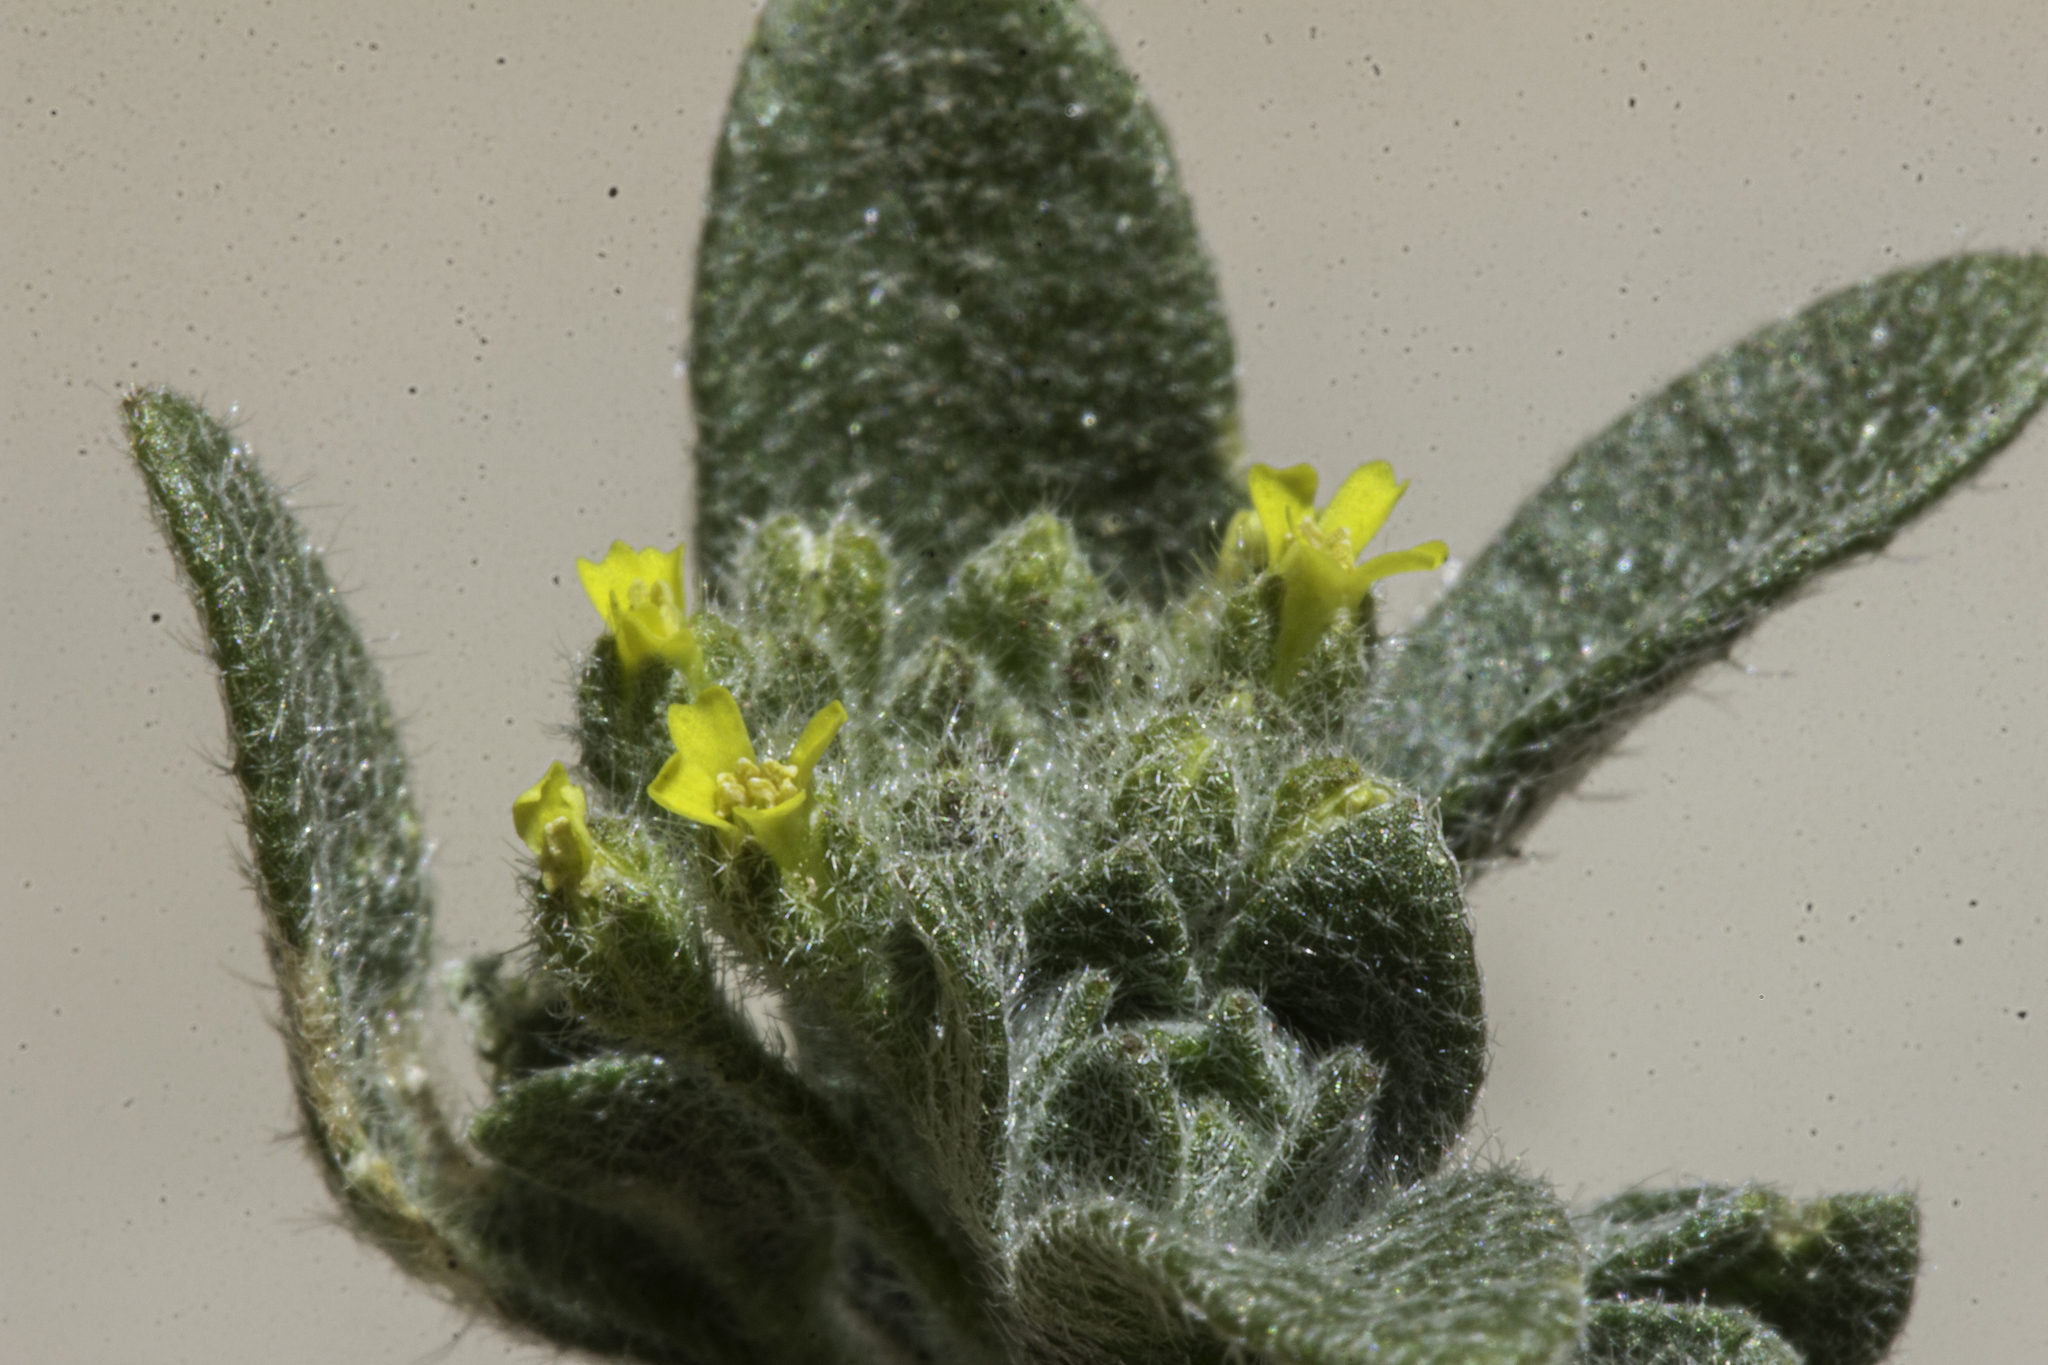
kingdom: Plantae
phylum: Tracheophyta
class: Magnoliopsida
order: Brassicales
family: Brassicaceae
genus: Alyssum
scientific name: Alyssum simplex
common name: Alyssum
